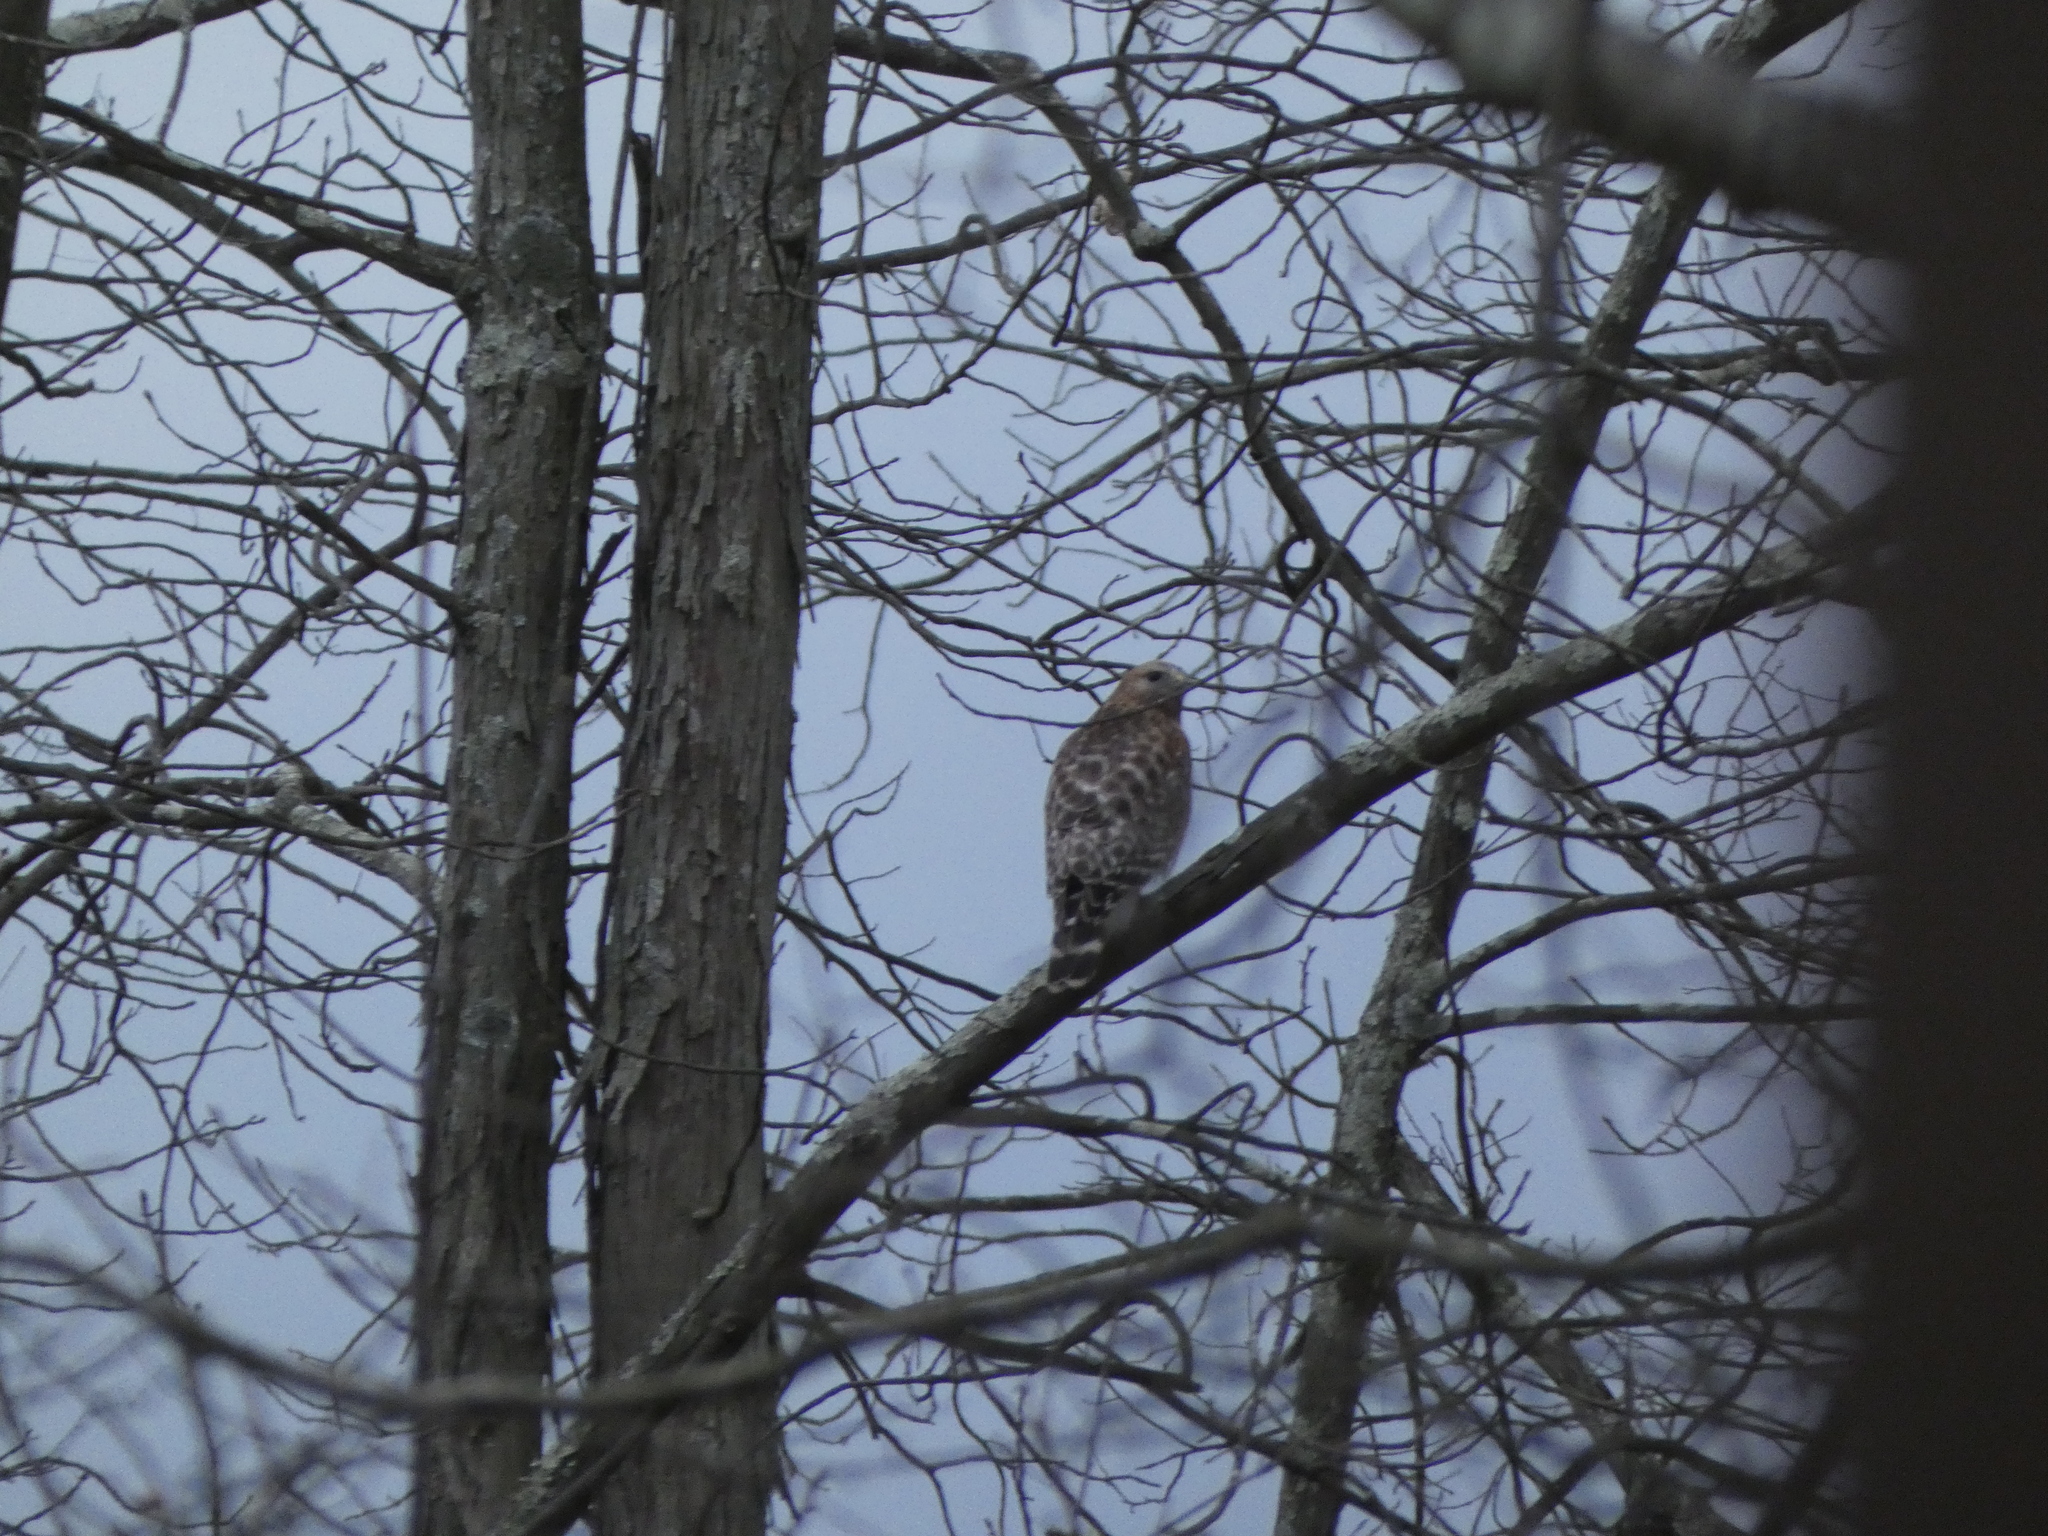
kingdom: Animalia
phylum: Chordata
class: Aves
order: Accipitriformes
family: Accipitridae
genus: Buteo
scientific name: Buteo lineatus
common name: Red-shouldered hawk
